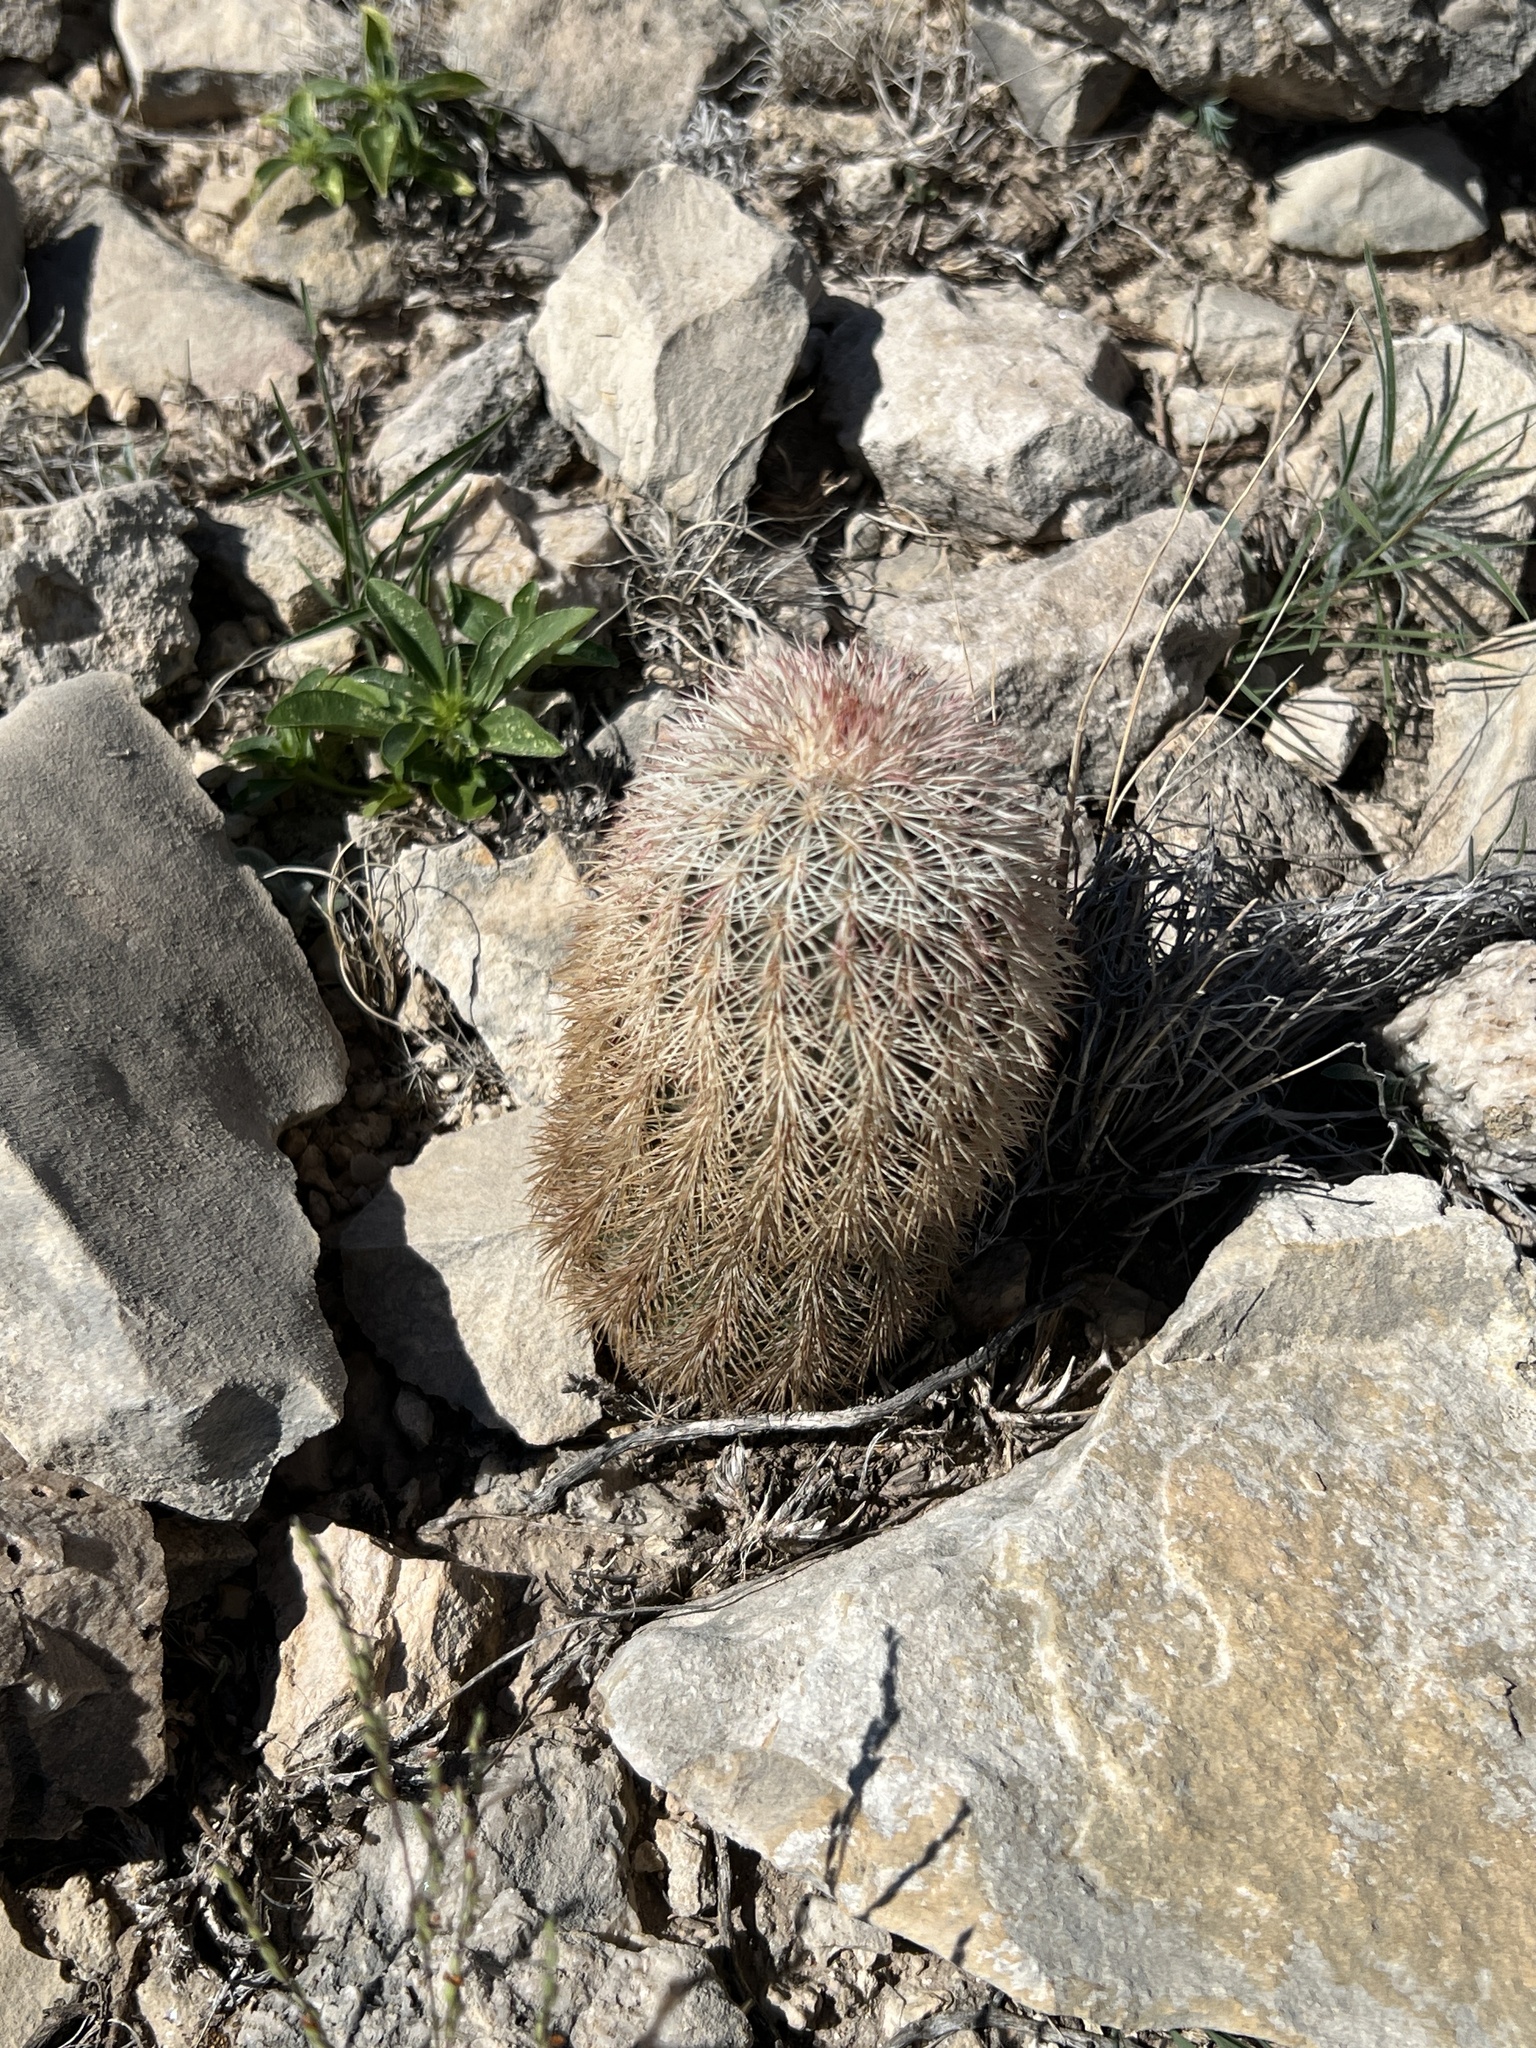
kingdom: Plantae
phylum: Tracheophyta
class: Magnoliopsida
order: Caryophyllales
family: Cactaceae
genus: Echinocereus
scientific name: Echinocereus dasyacanthus
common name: Spiny hedgehog cactus
